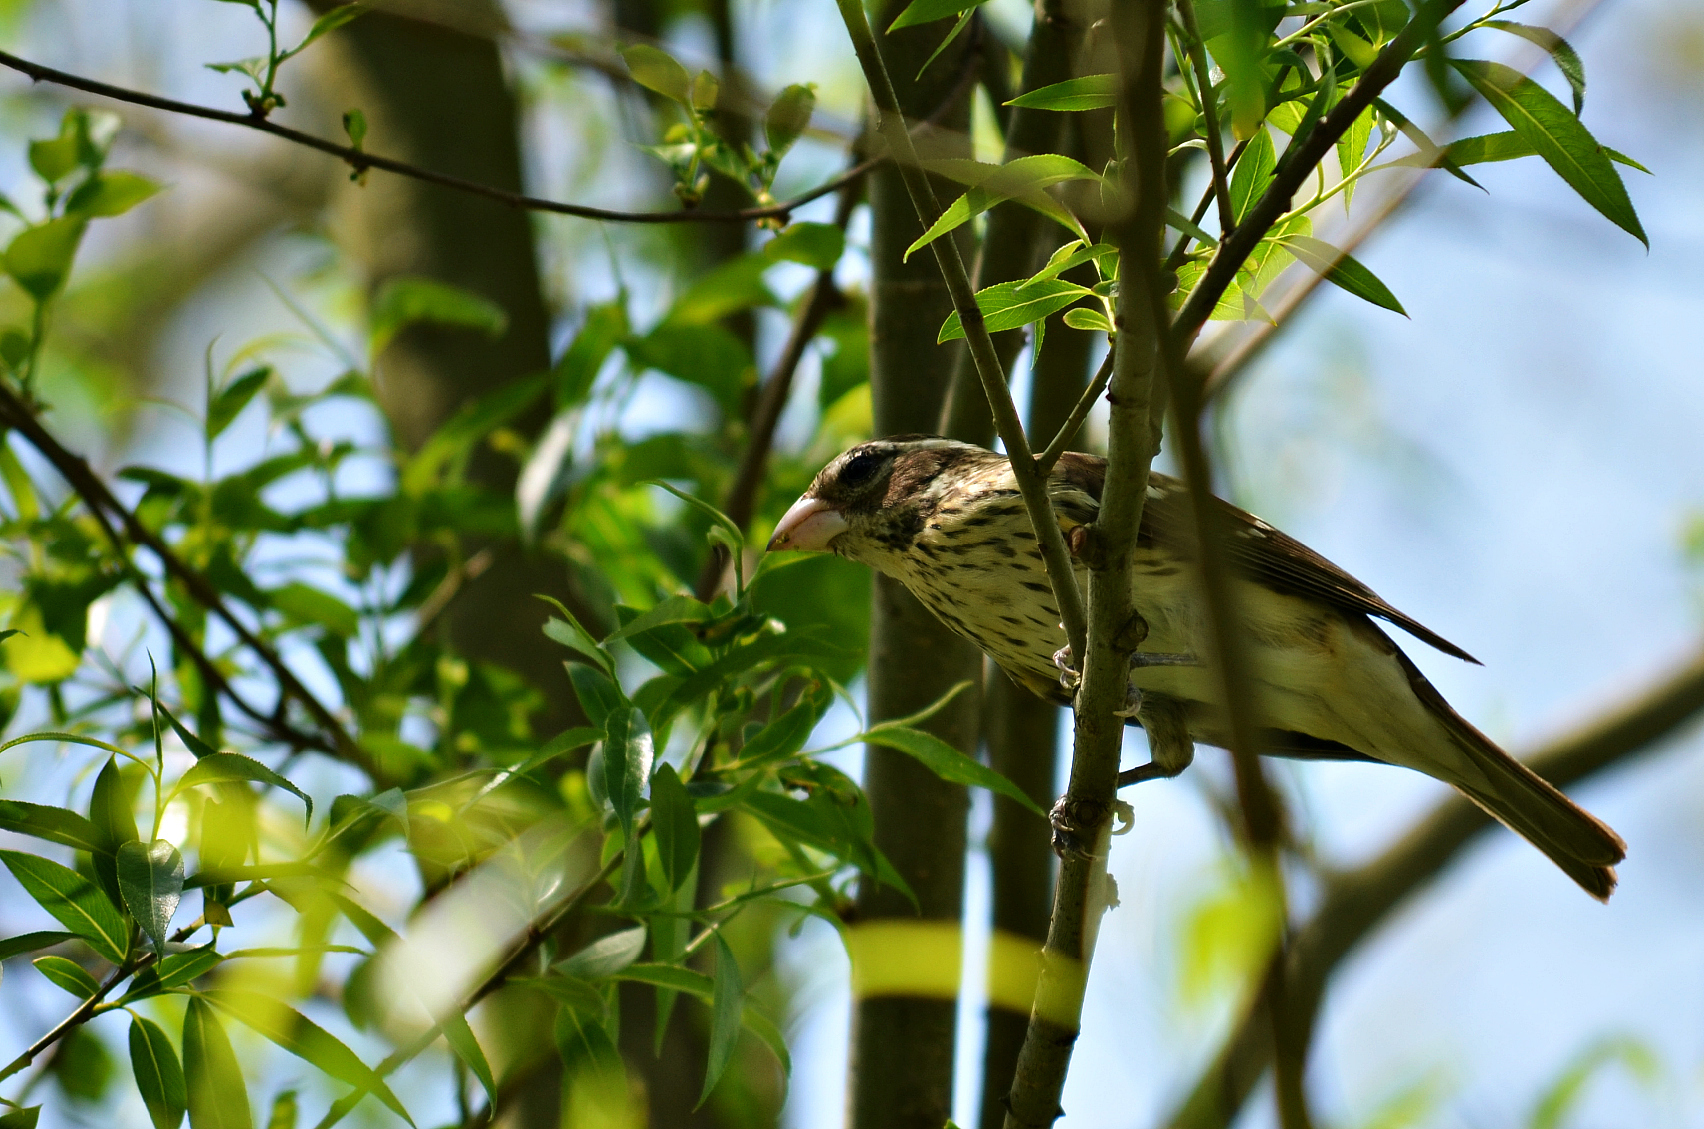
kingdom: Animalia
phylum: Chordata
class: Aves
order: Passeriformes
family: Cardinalidae
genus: Pheucticus
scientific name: Pheucticus ludovicianus
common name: Rose-breasted grosbeak
